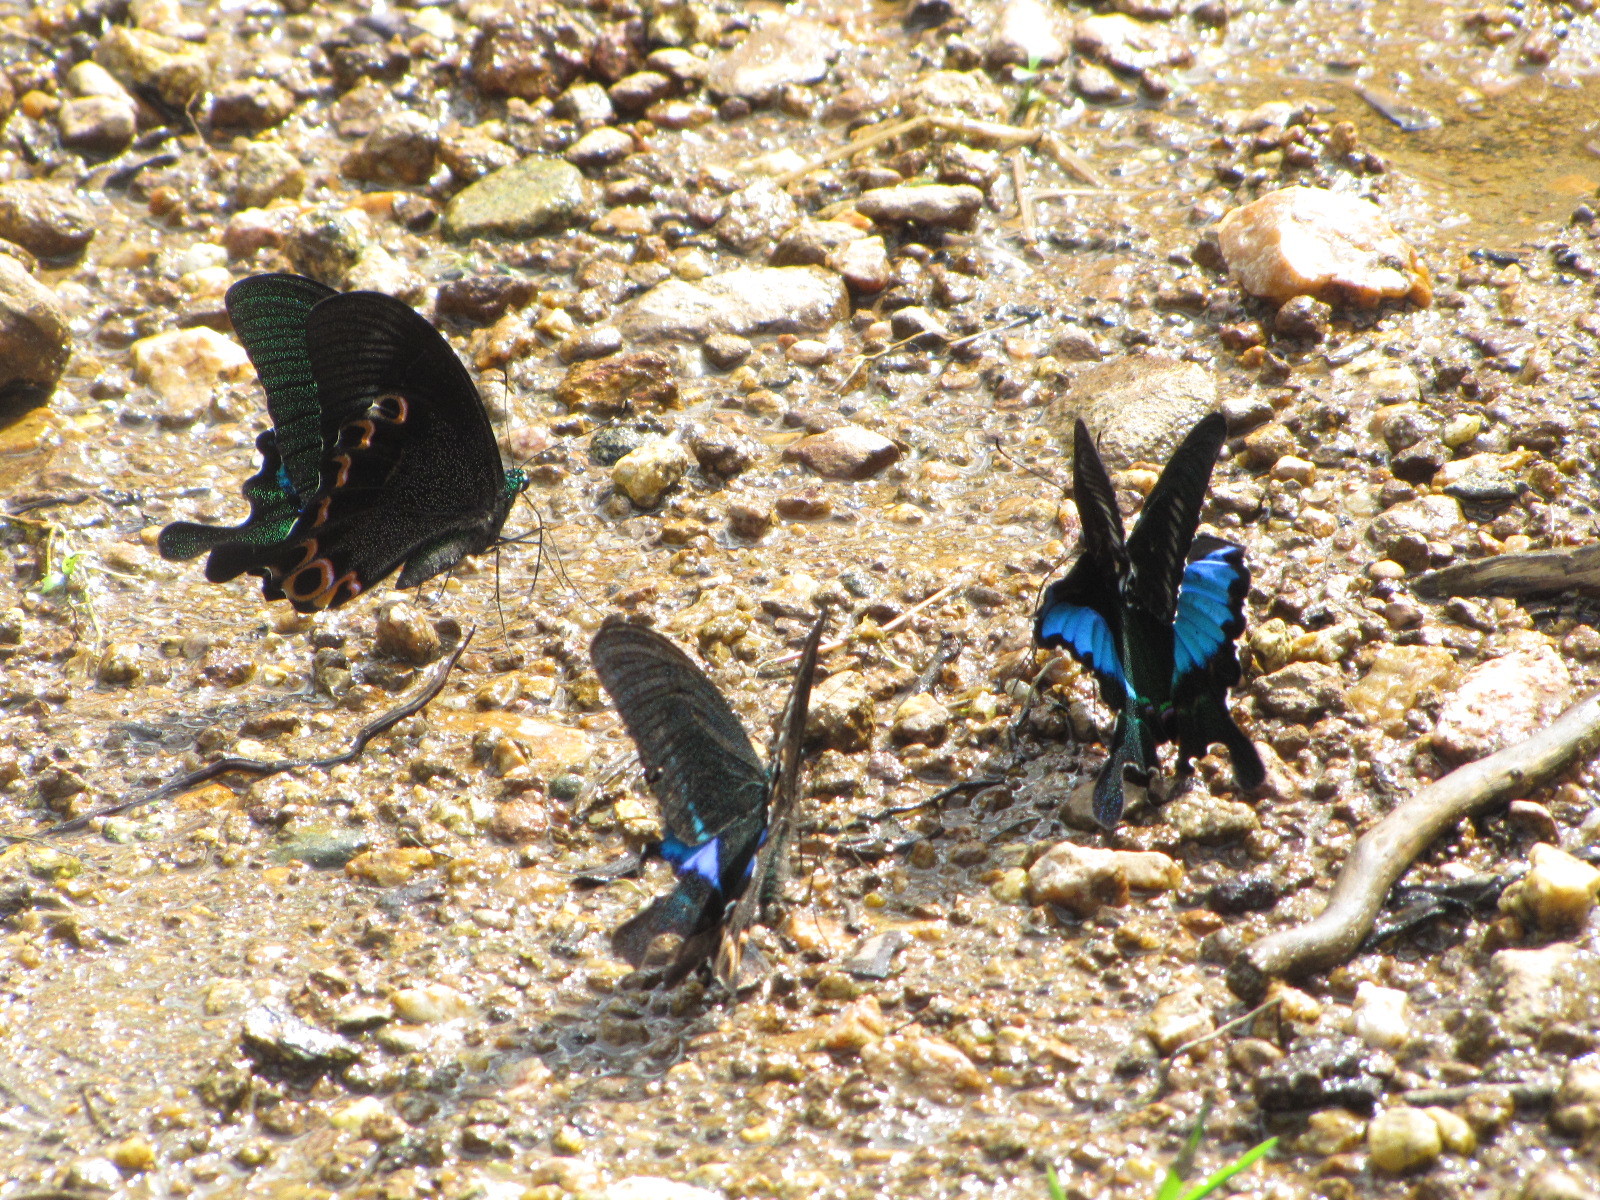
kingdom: Animalia
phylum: Arthropoda
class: Insecta
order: Lepidoptera
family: Papilionidae
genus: Papilio
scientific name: Papilio paris
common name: Paris peacock
